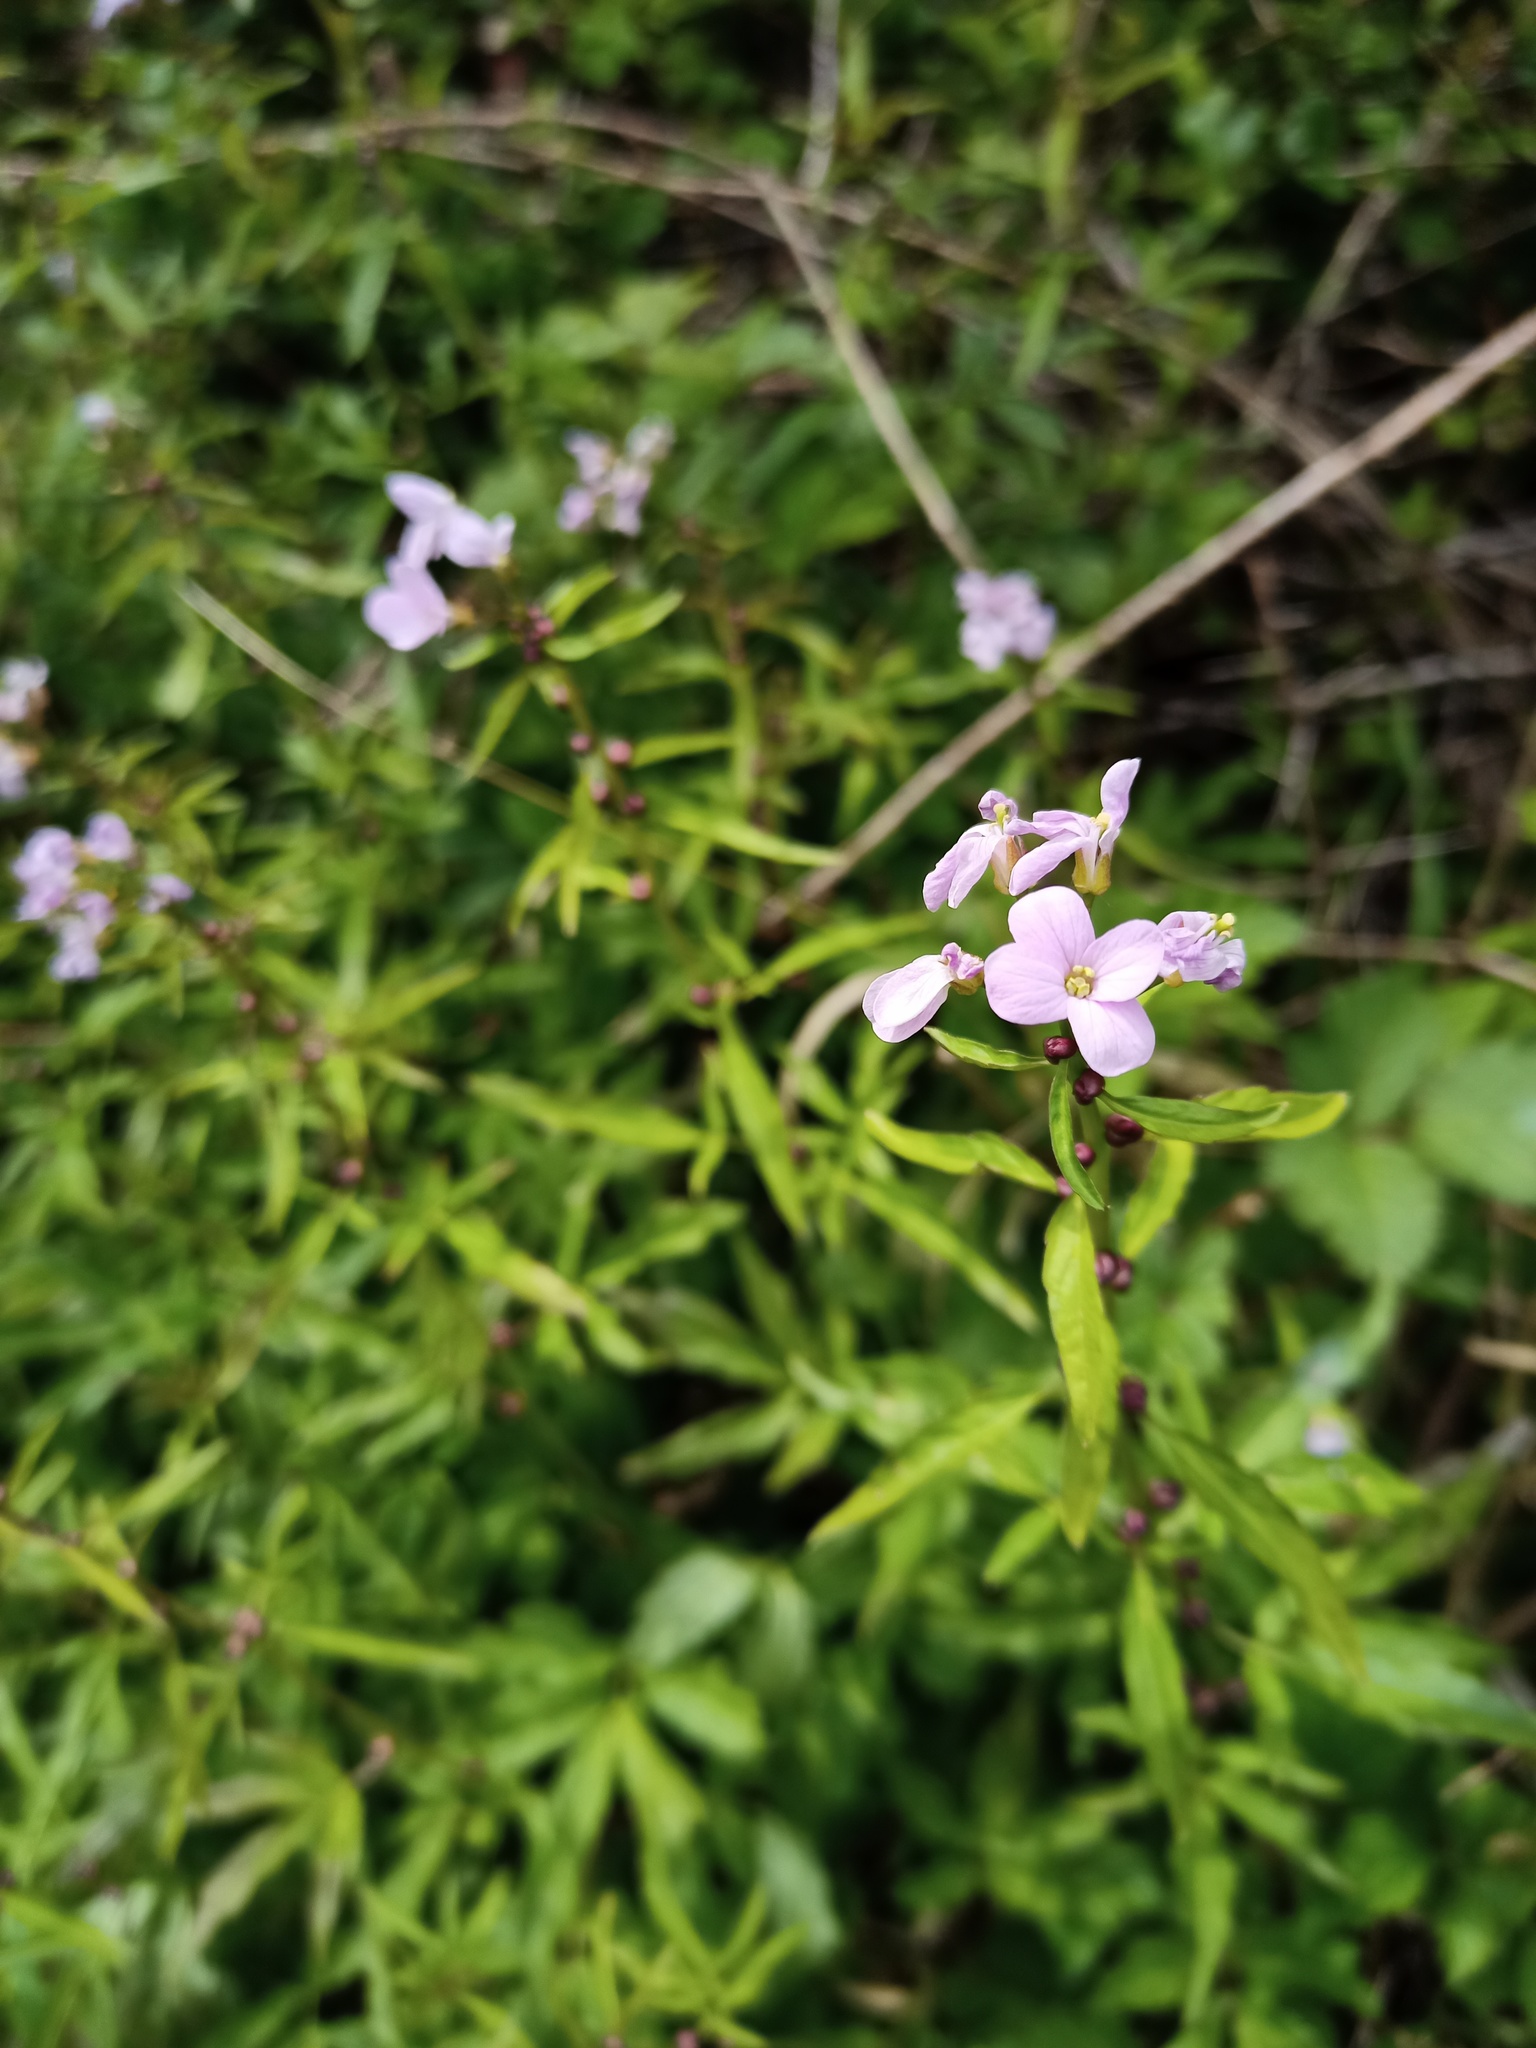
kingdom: Plantae
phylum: Tracheophyta
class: Magnoliopsida
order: Brassicales
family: Brassicaceae
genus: Cardamine
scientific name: Cardamine bulbifera
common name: Coralroot bittercress
